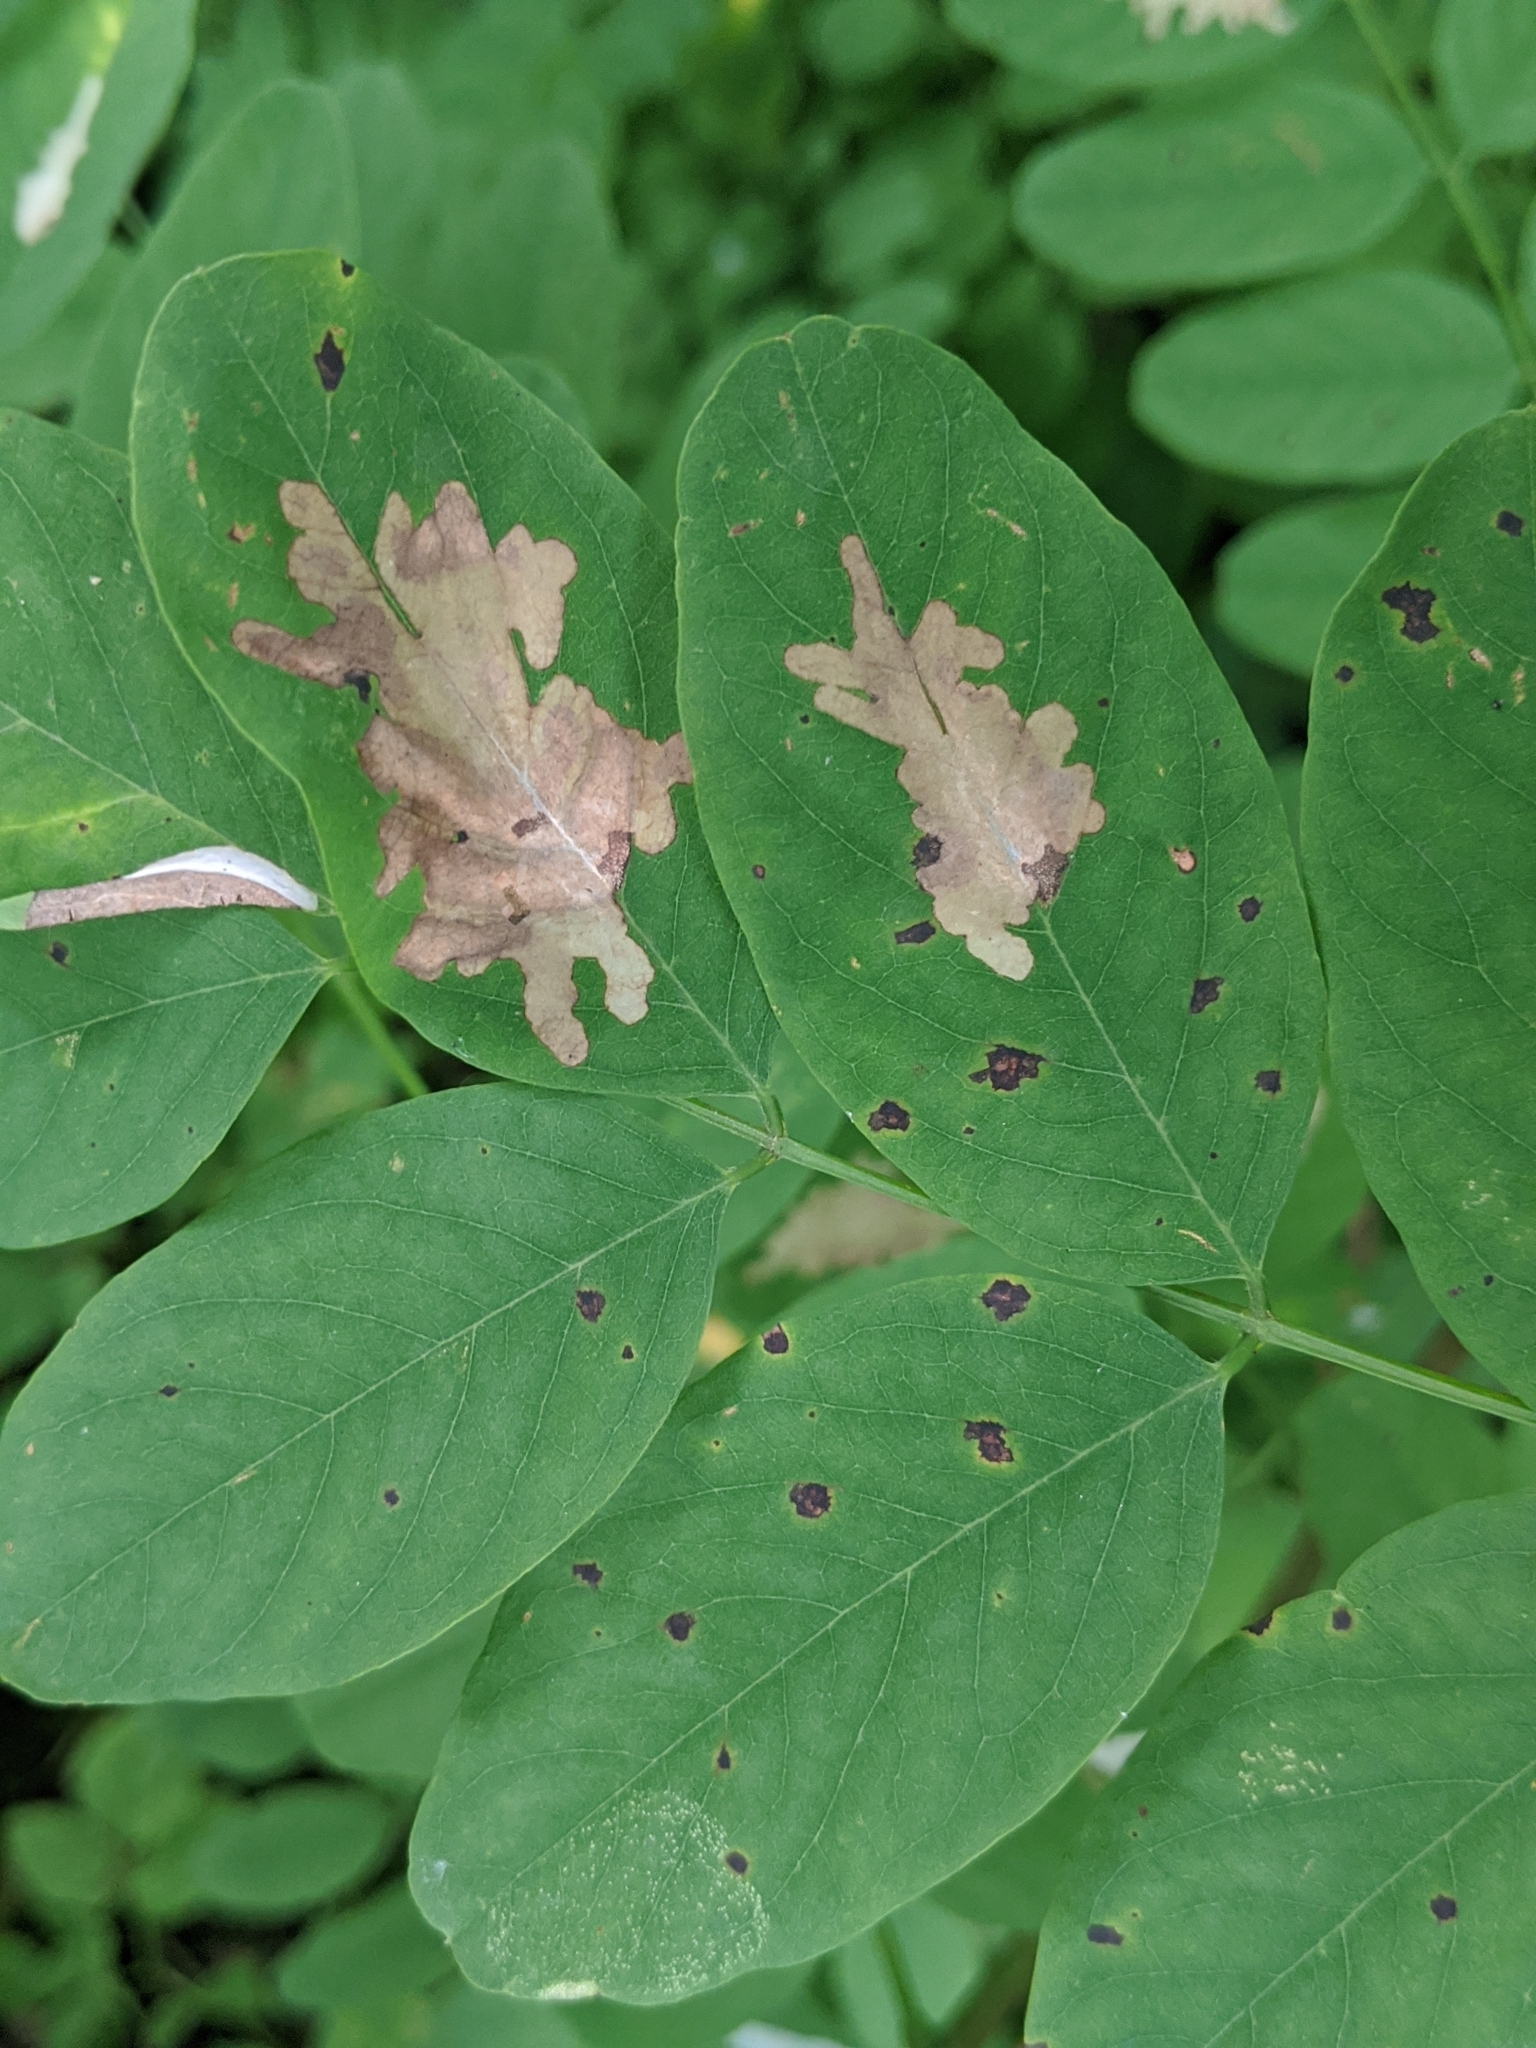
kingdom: Animalia
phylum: Arthropoda
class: Insecta
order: Lepidoptera
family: Gracillariidae
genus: Parectopa
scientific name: Parectopa robiniella
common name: Locust digitate leafminer
